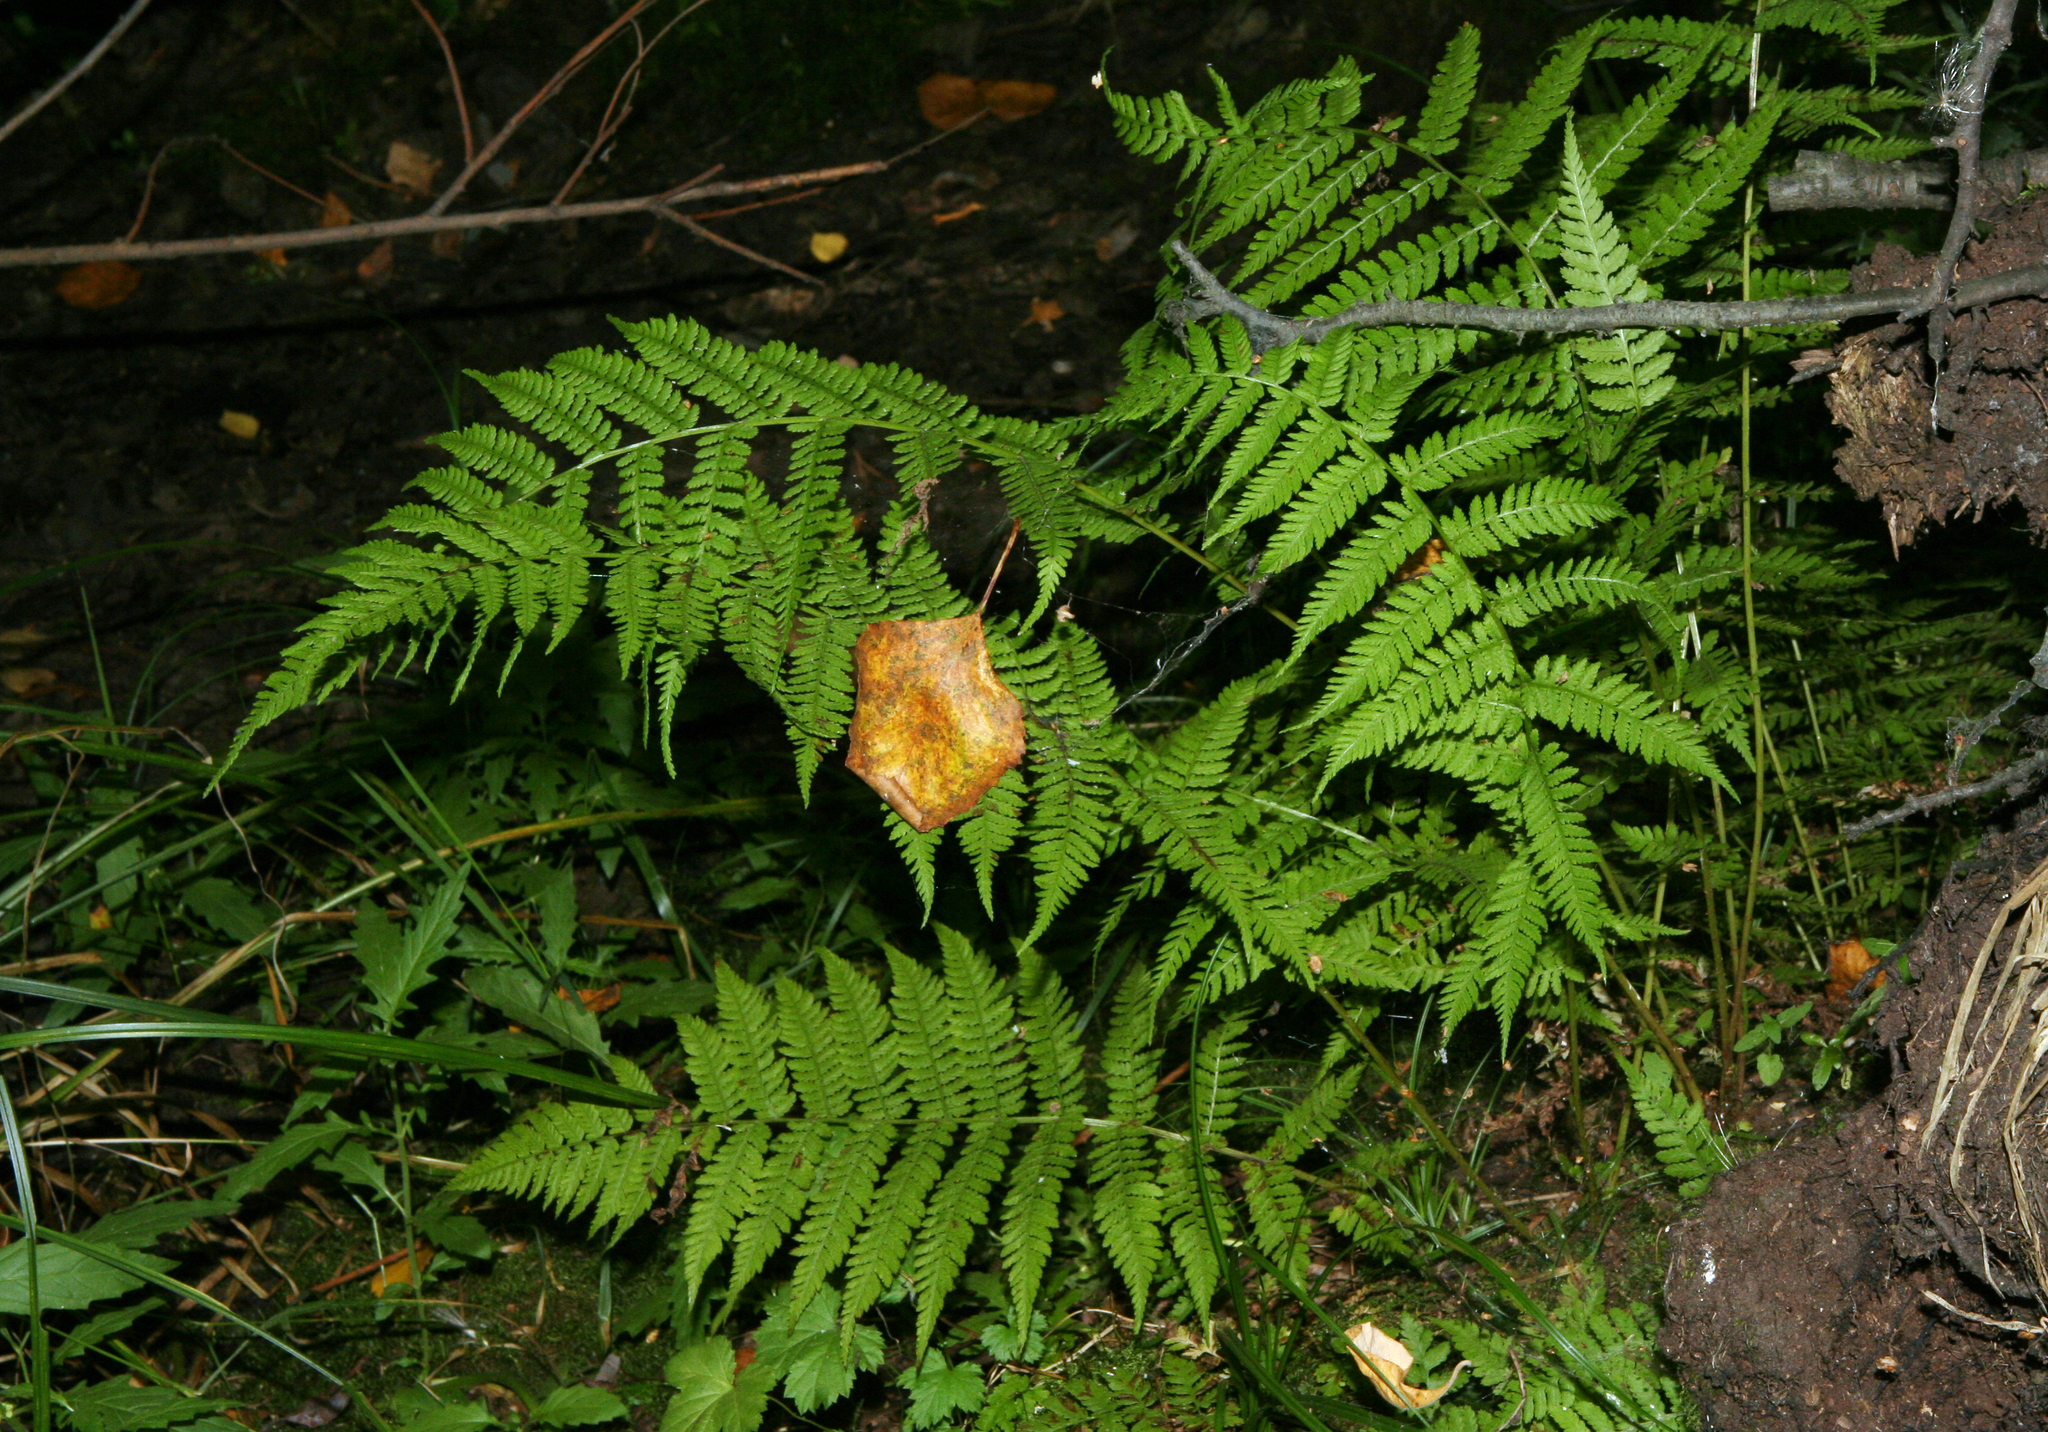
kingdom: Plantae
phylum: Tracheophyta
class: Polypodiopsida
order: Polypodiales
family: Athyriaceae
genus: Athyrium
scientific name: Athyrium filix-femina
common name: Lady fern
